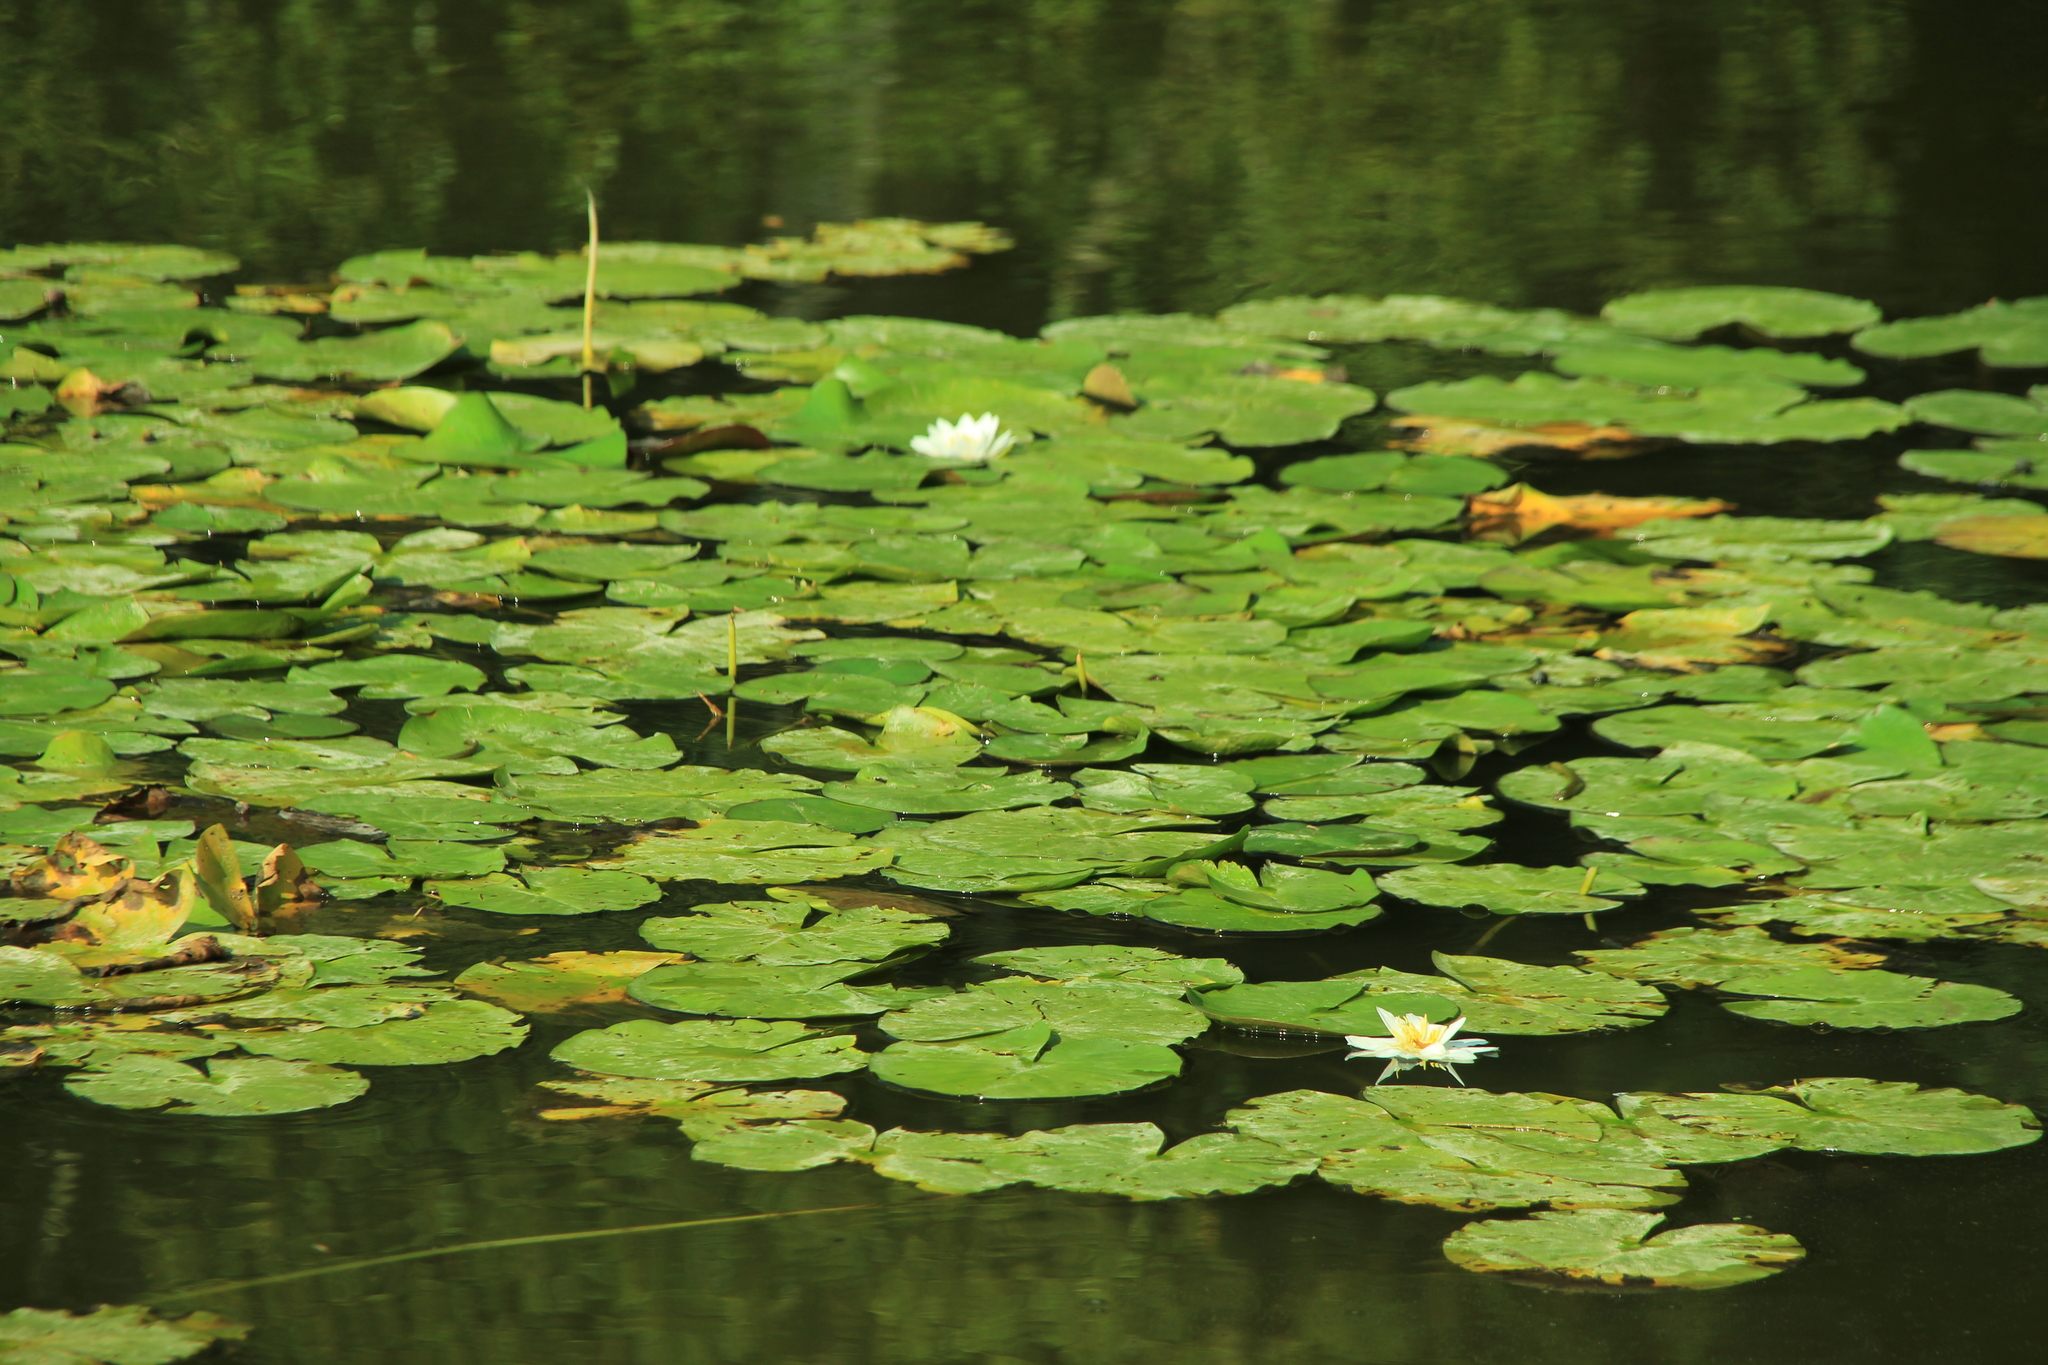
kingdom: Plantae
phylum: Tracheophyta
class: Magnoliopsida
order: Nymphaeales
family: Nymphaeaceae
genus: Nymphaea
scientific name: Nymphaea alba
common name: White water-lily
